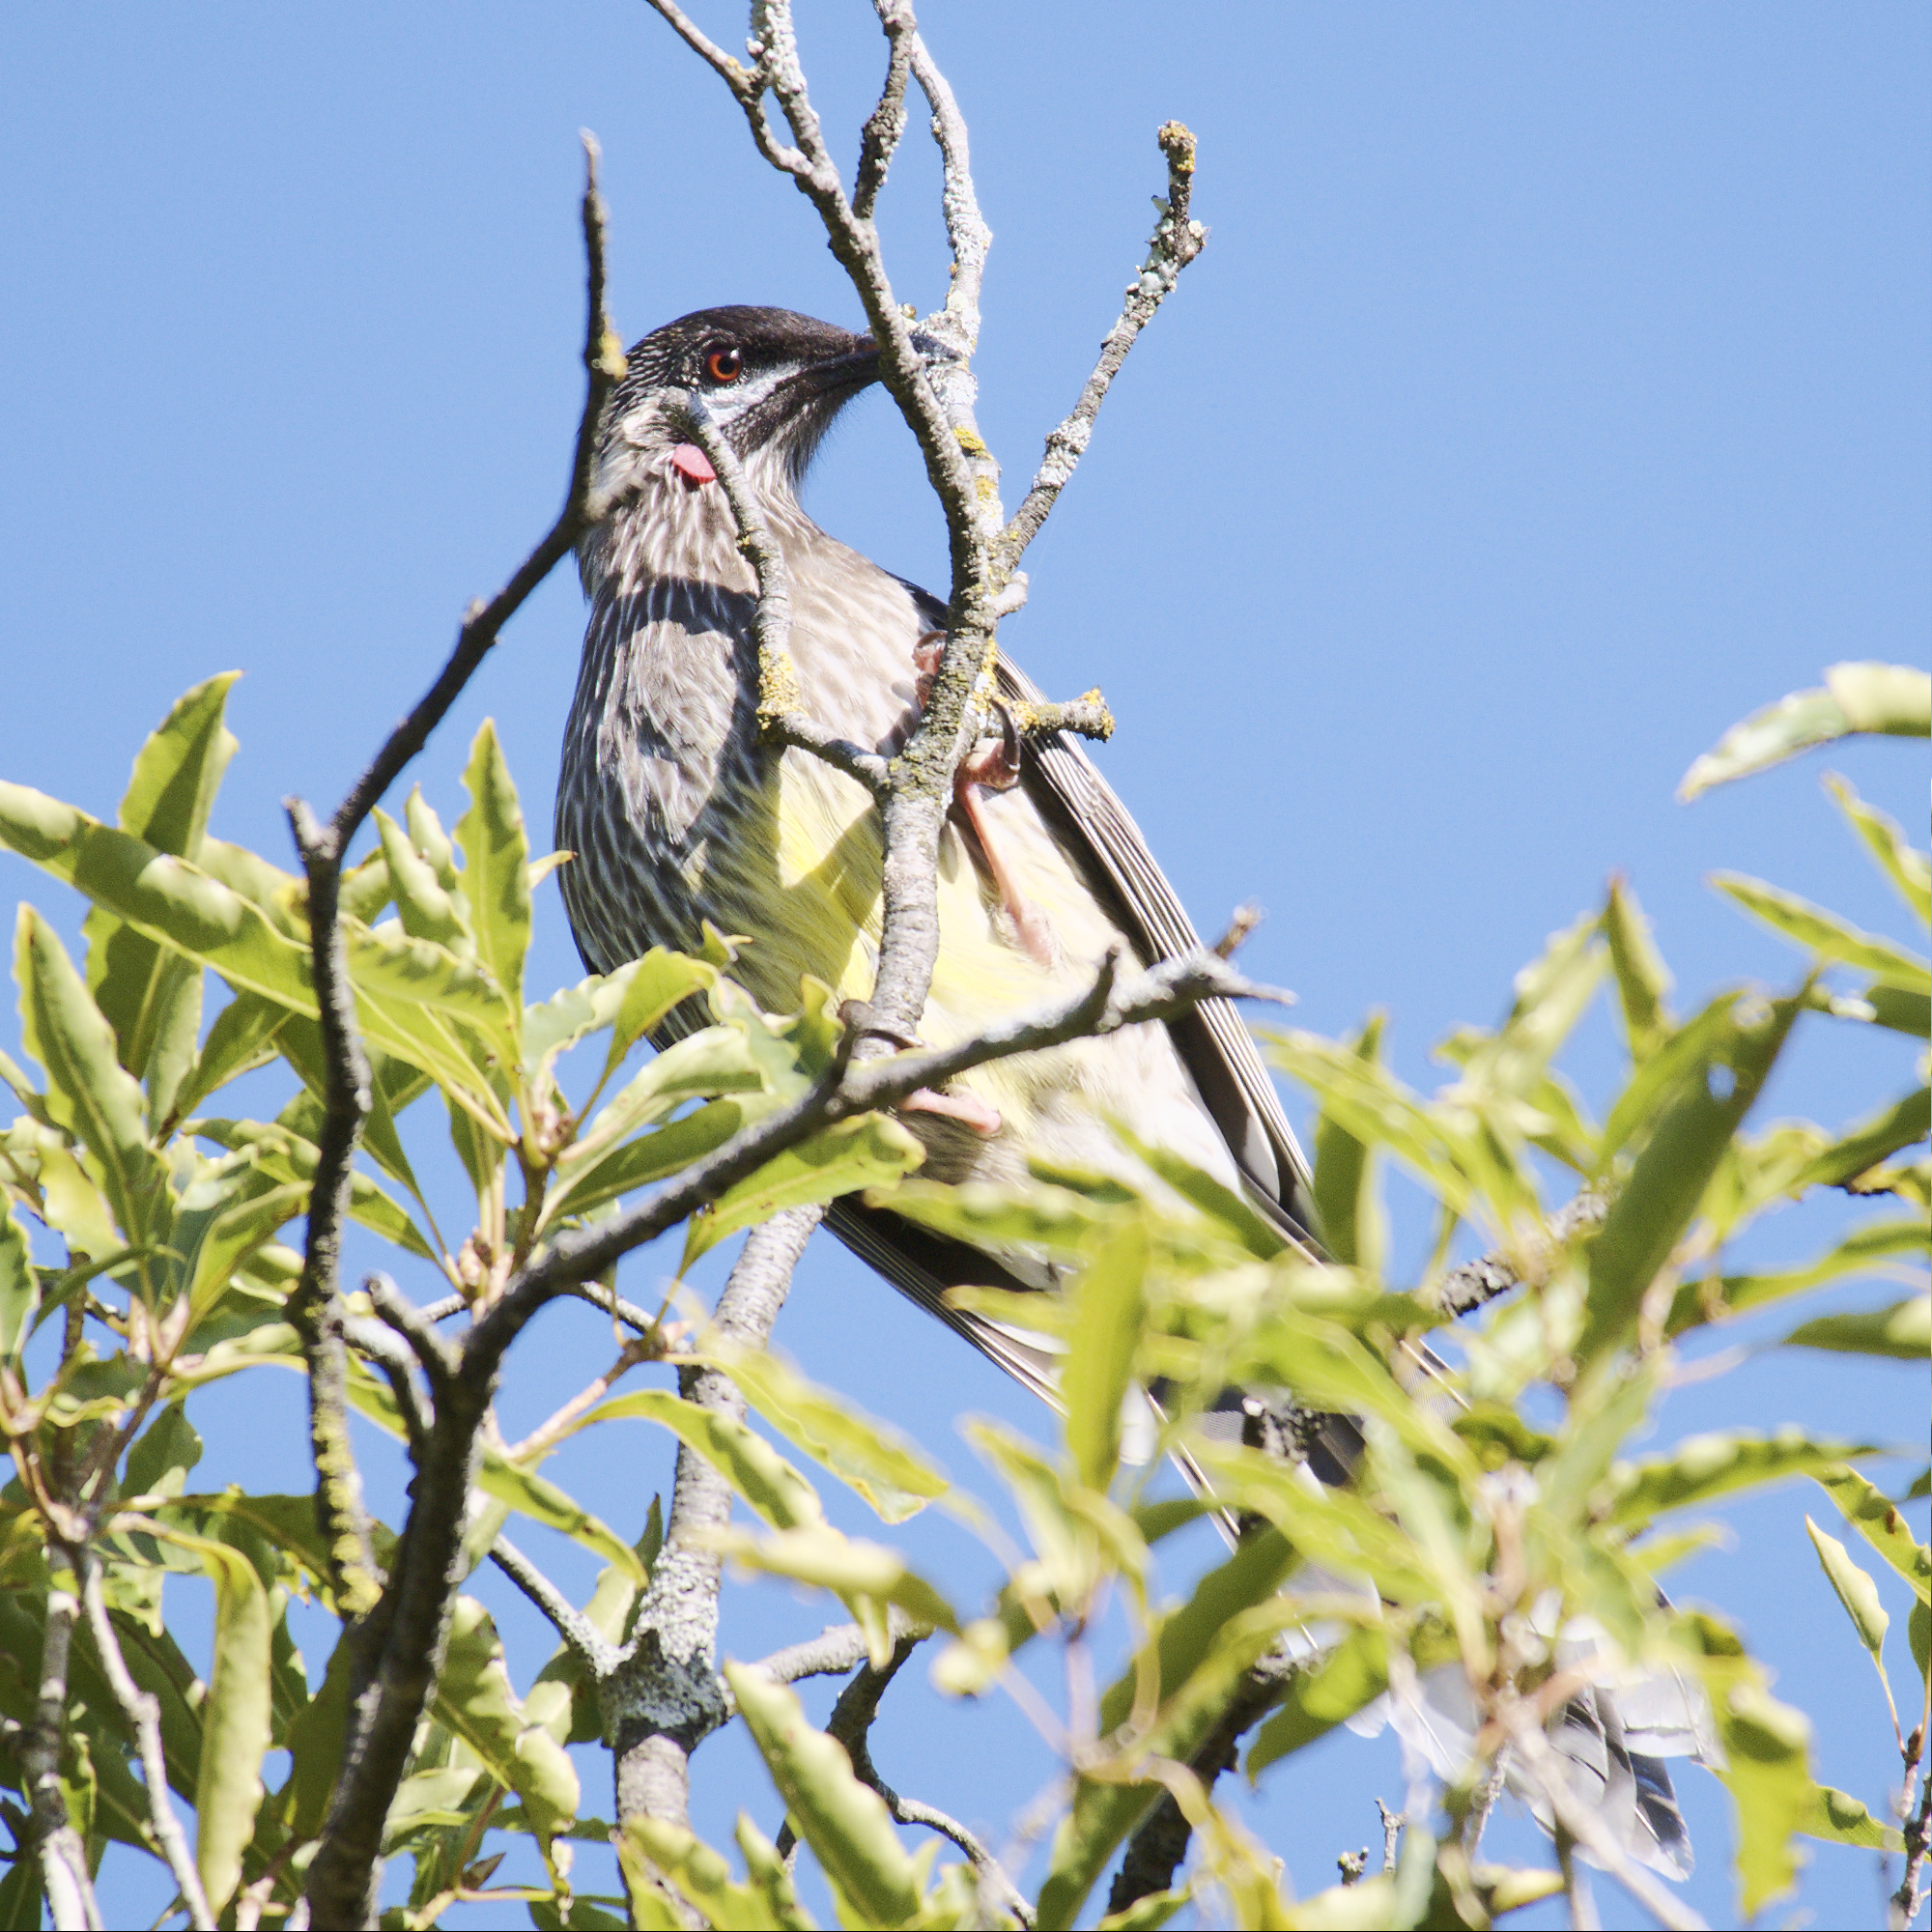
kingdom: Animalia
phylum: Chordata
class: Aves
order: Passeriformes
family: Meliphagidae
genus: Anthochaera
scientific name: Anthochaera carunculata
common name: Red wattlebird
